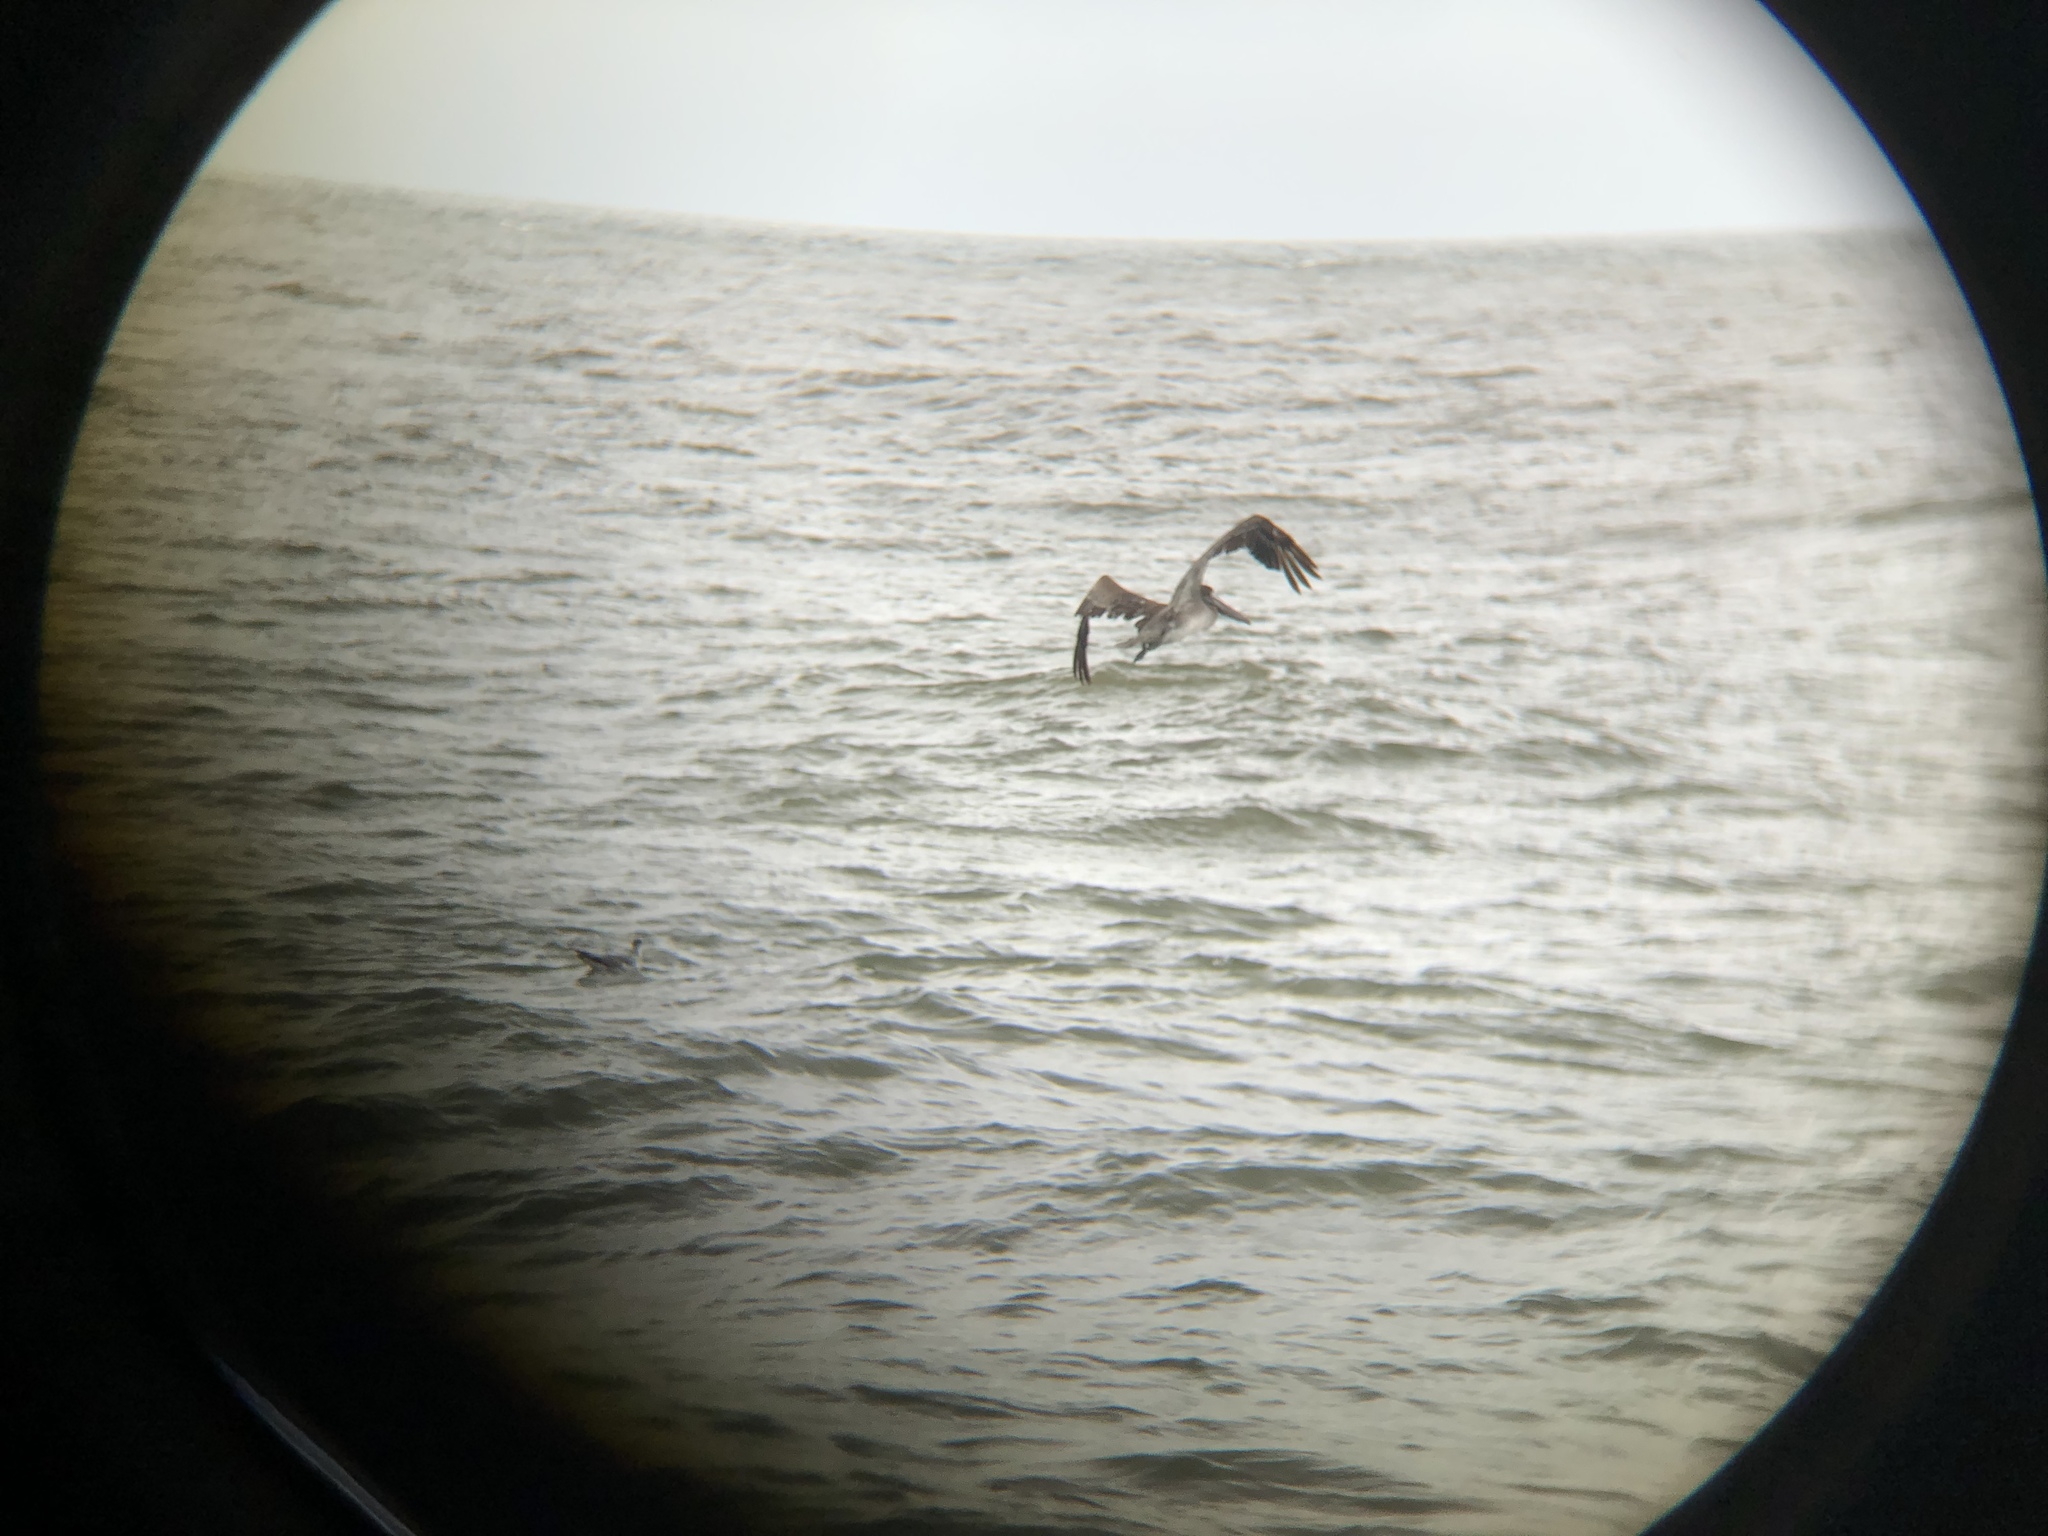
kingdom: Animalia
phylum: Chordata
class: Aves
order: Pelecaniformes
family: Pelecanidae
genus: Pelecanus
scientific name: Pelecanus occidentalis
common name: Brown pelican
